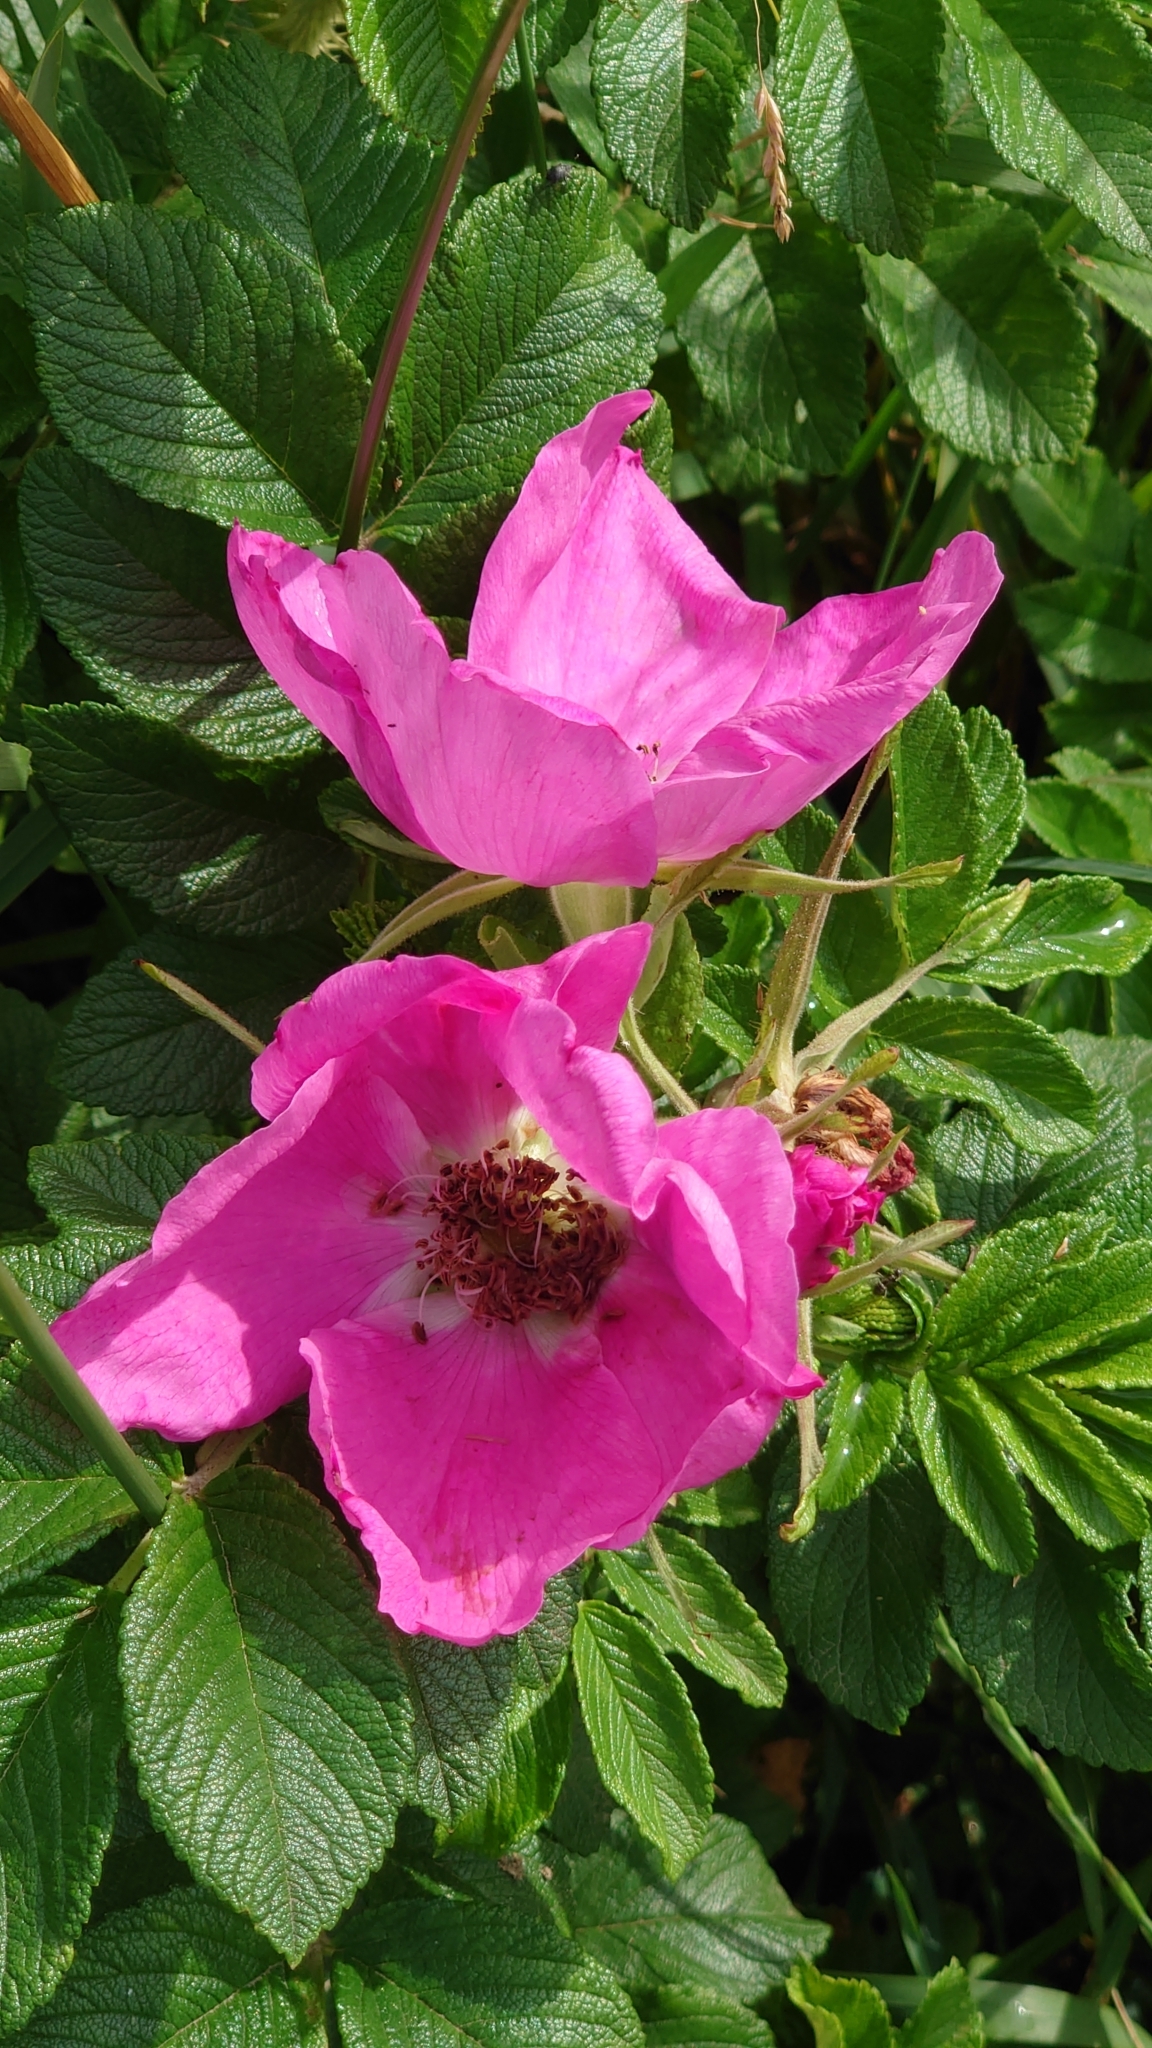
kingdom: Plantae
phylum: Tracheophyta
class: Magnoliopsida
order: Rosales
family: Rosaceae
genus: Rosa
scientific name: Rosa rugosa
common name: Japanese rose
